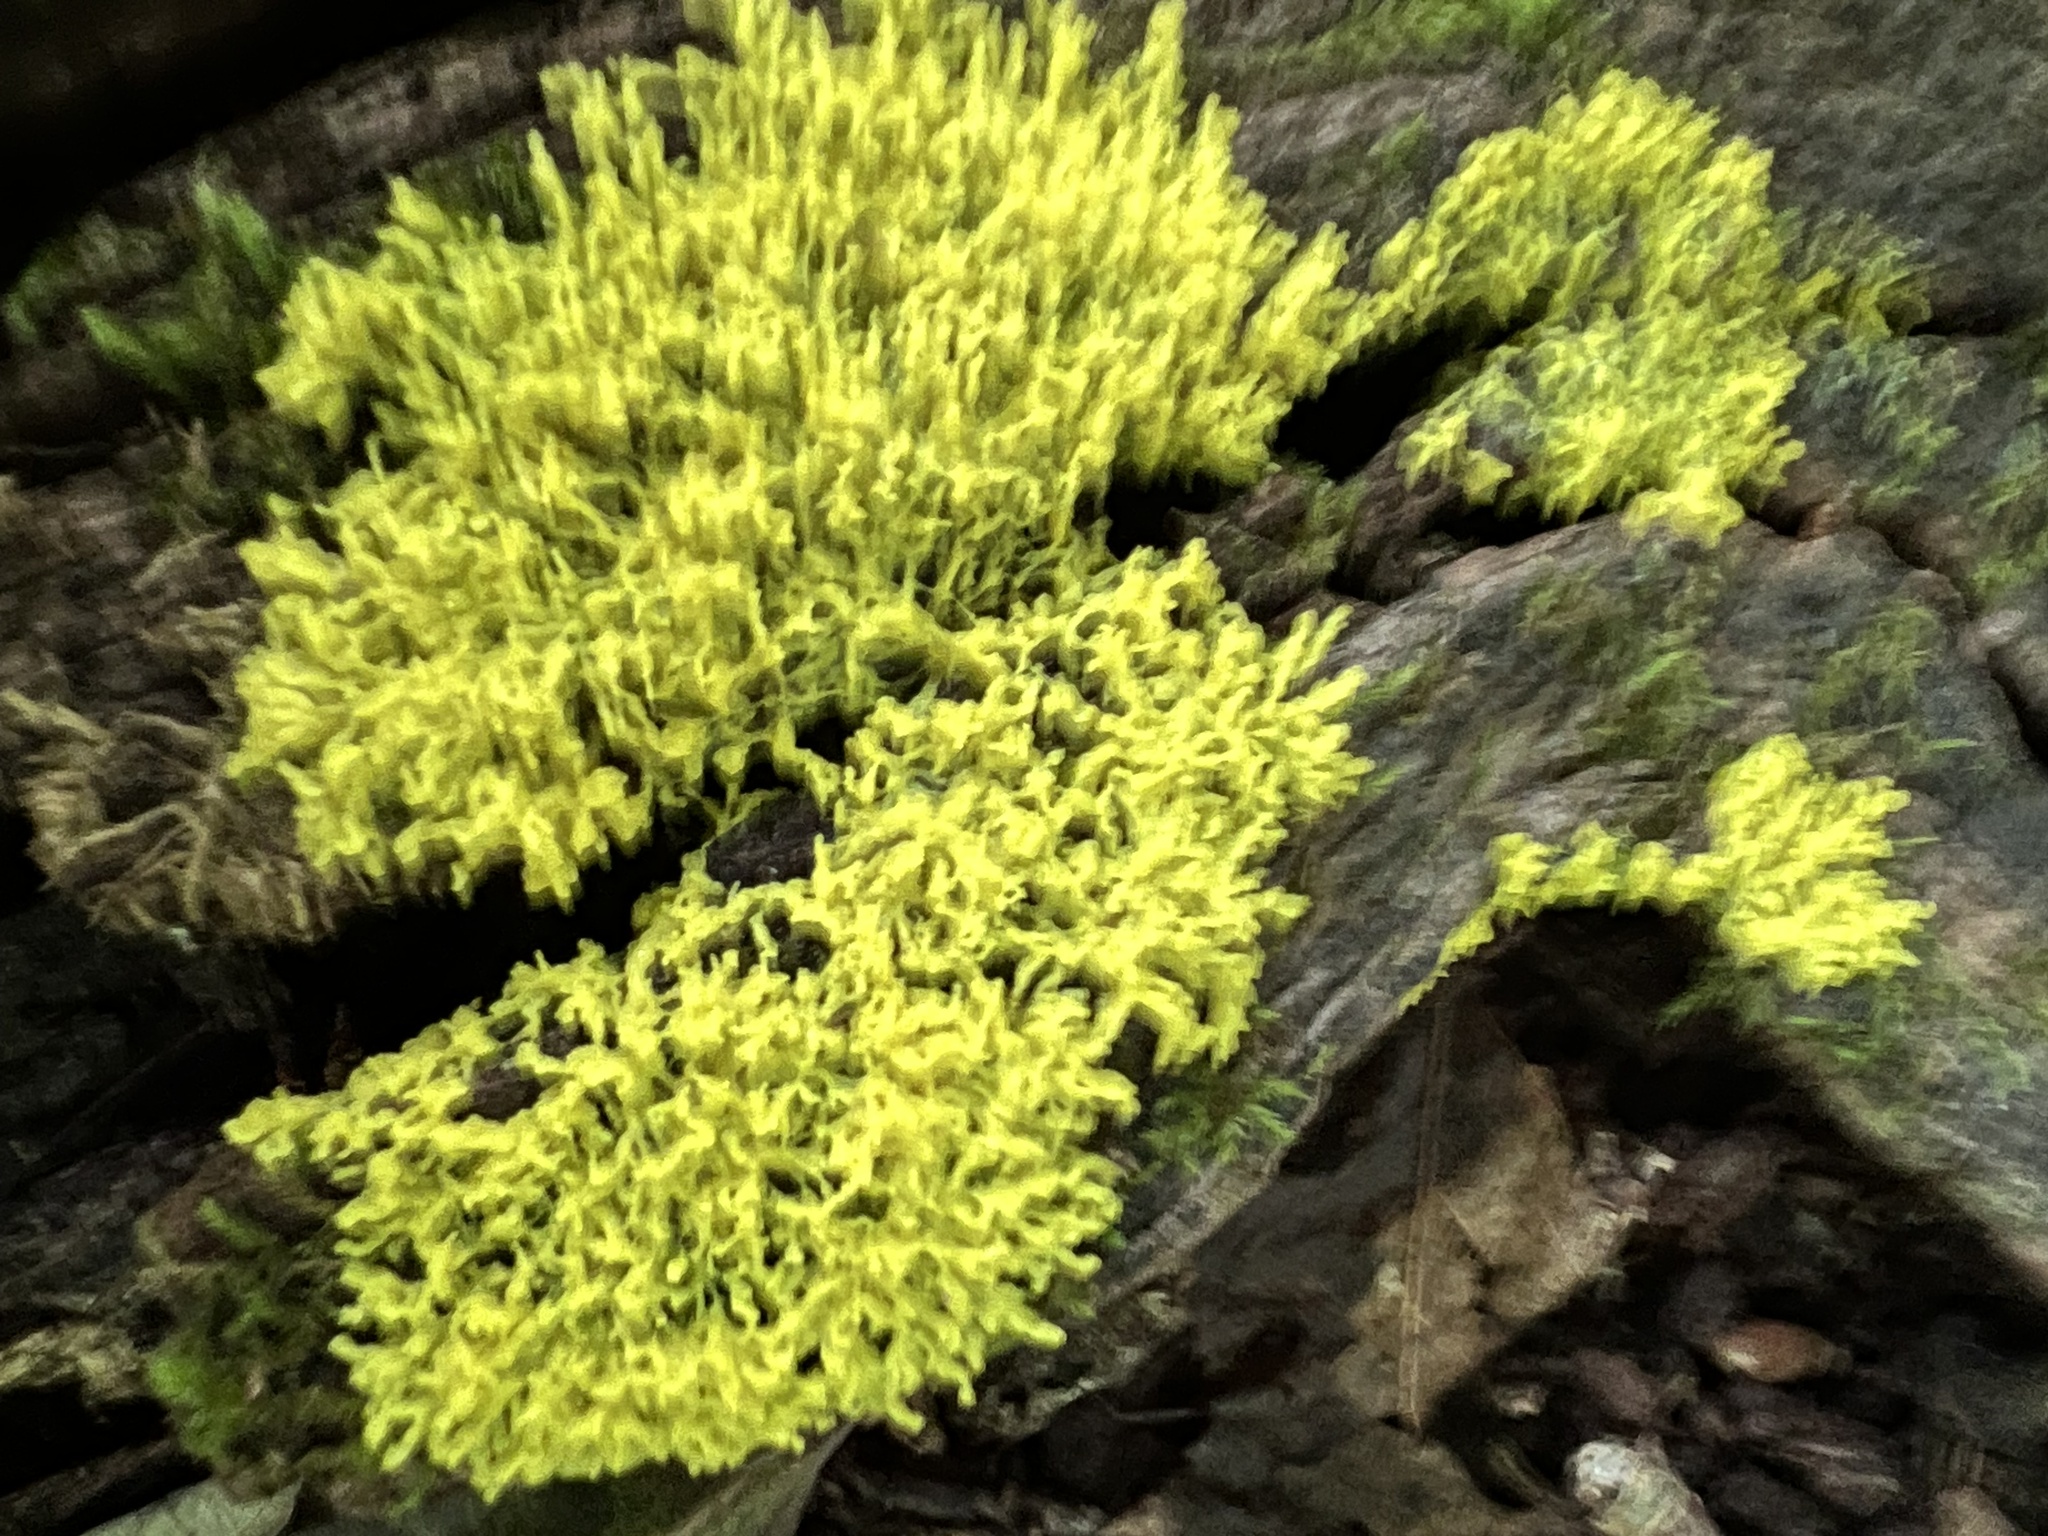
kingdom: Protozoa
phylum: Mycetozoa
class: Myxomycetes
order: Physarales
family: Physaraceae
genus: Fuligo
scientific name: Fuligo septica
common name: Dog vomit slime mold
